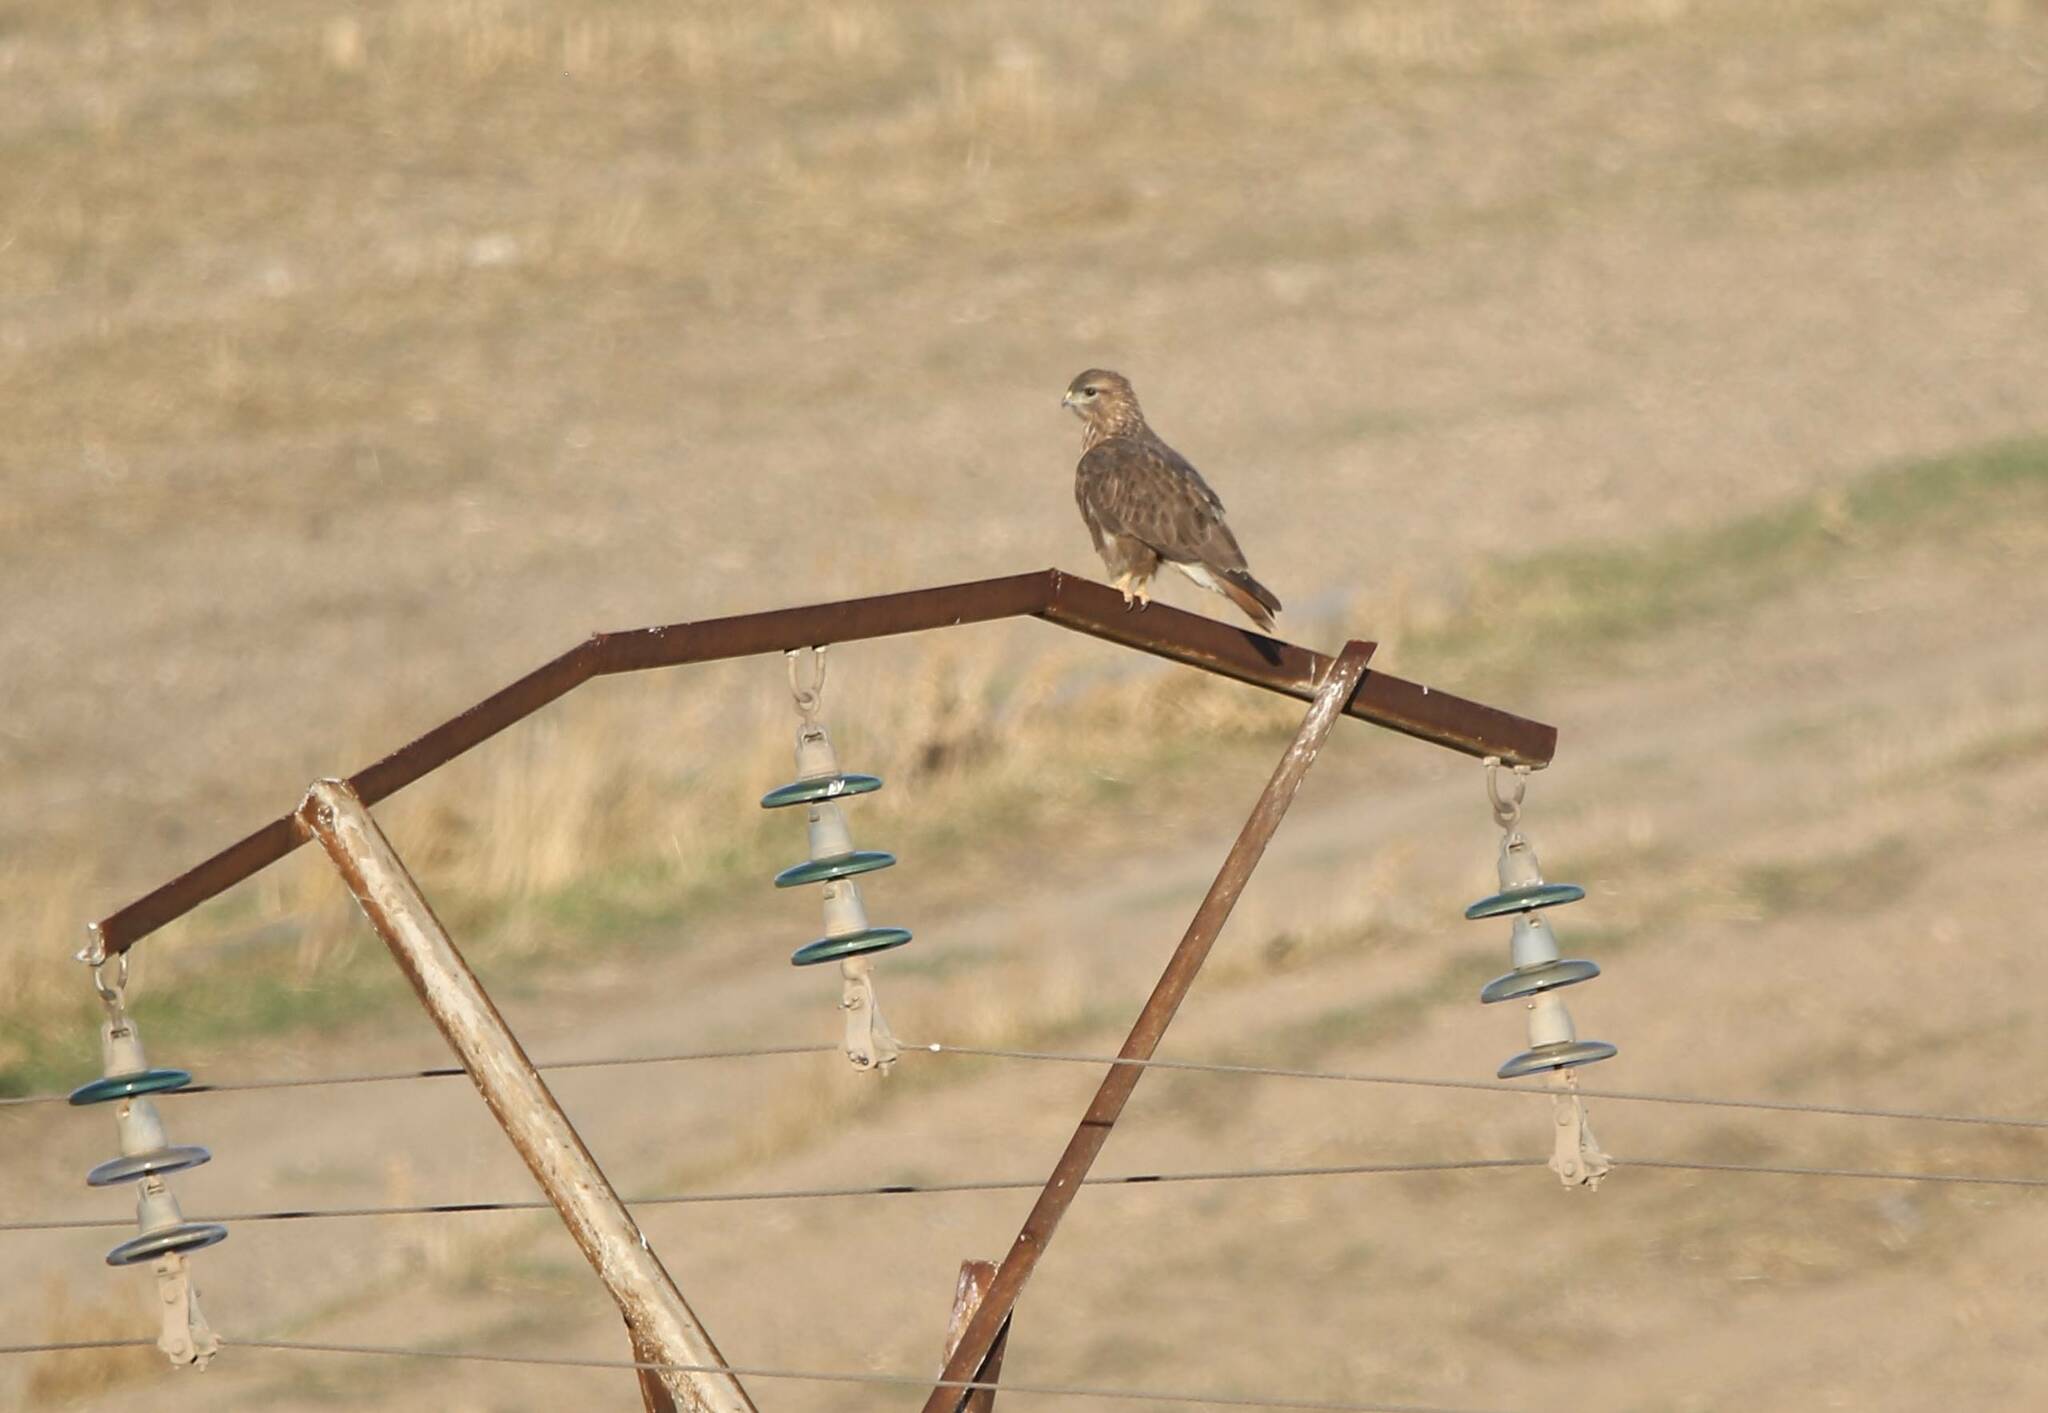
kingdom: Animalia
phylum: Chordata
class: Aves
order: Accipitriformes
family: Accipitridae
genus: Buteo
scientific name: Buteo rufinus
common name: Long-legged buzzard
